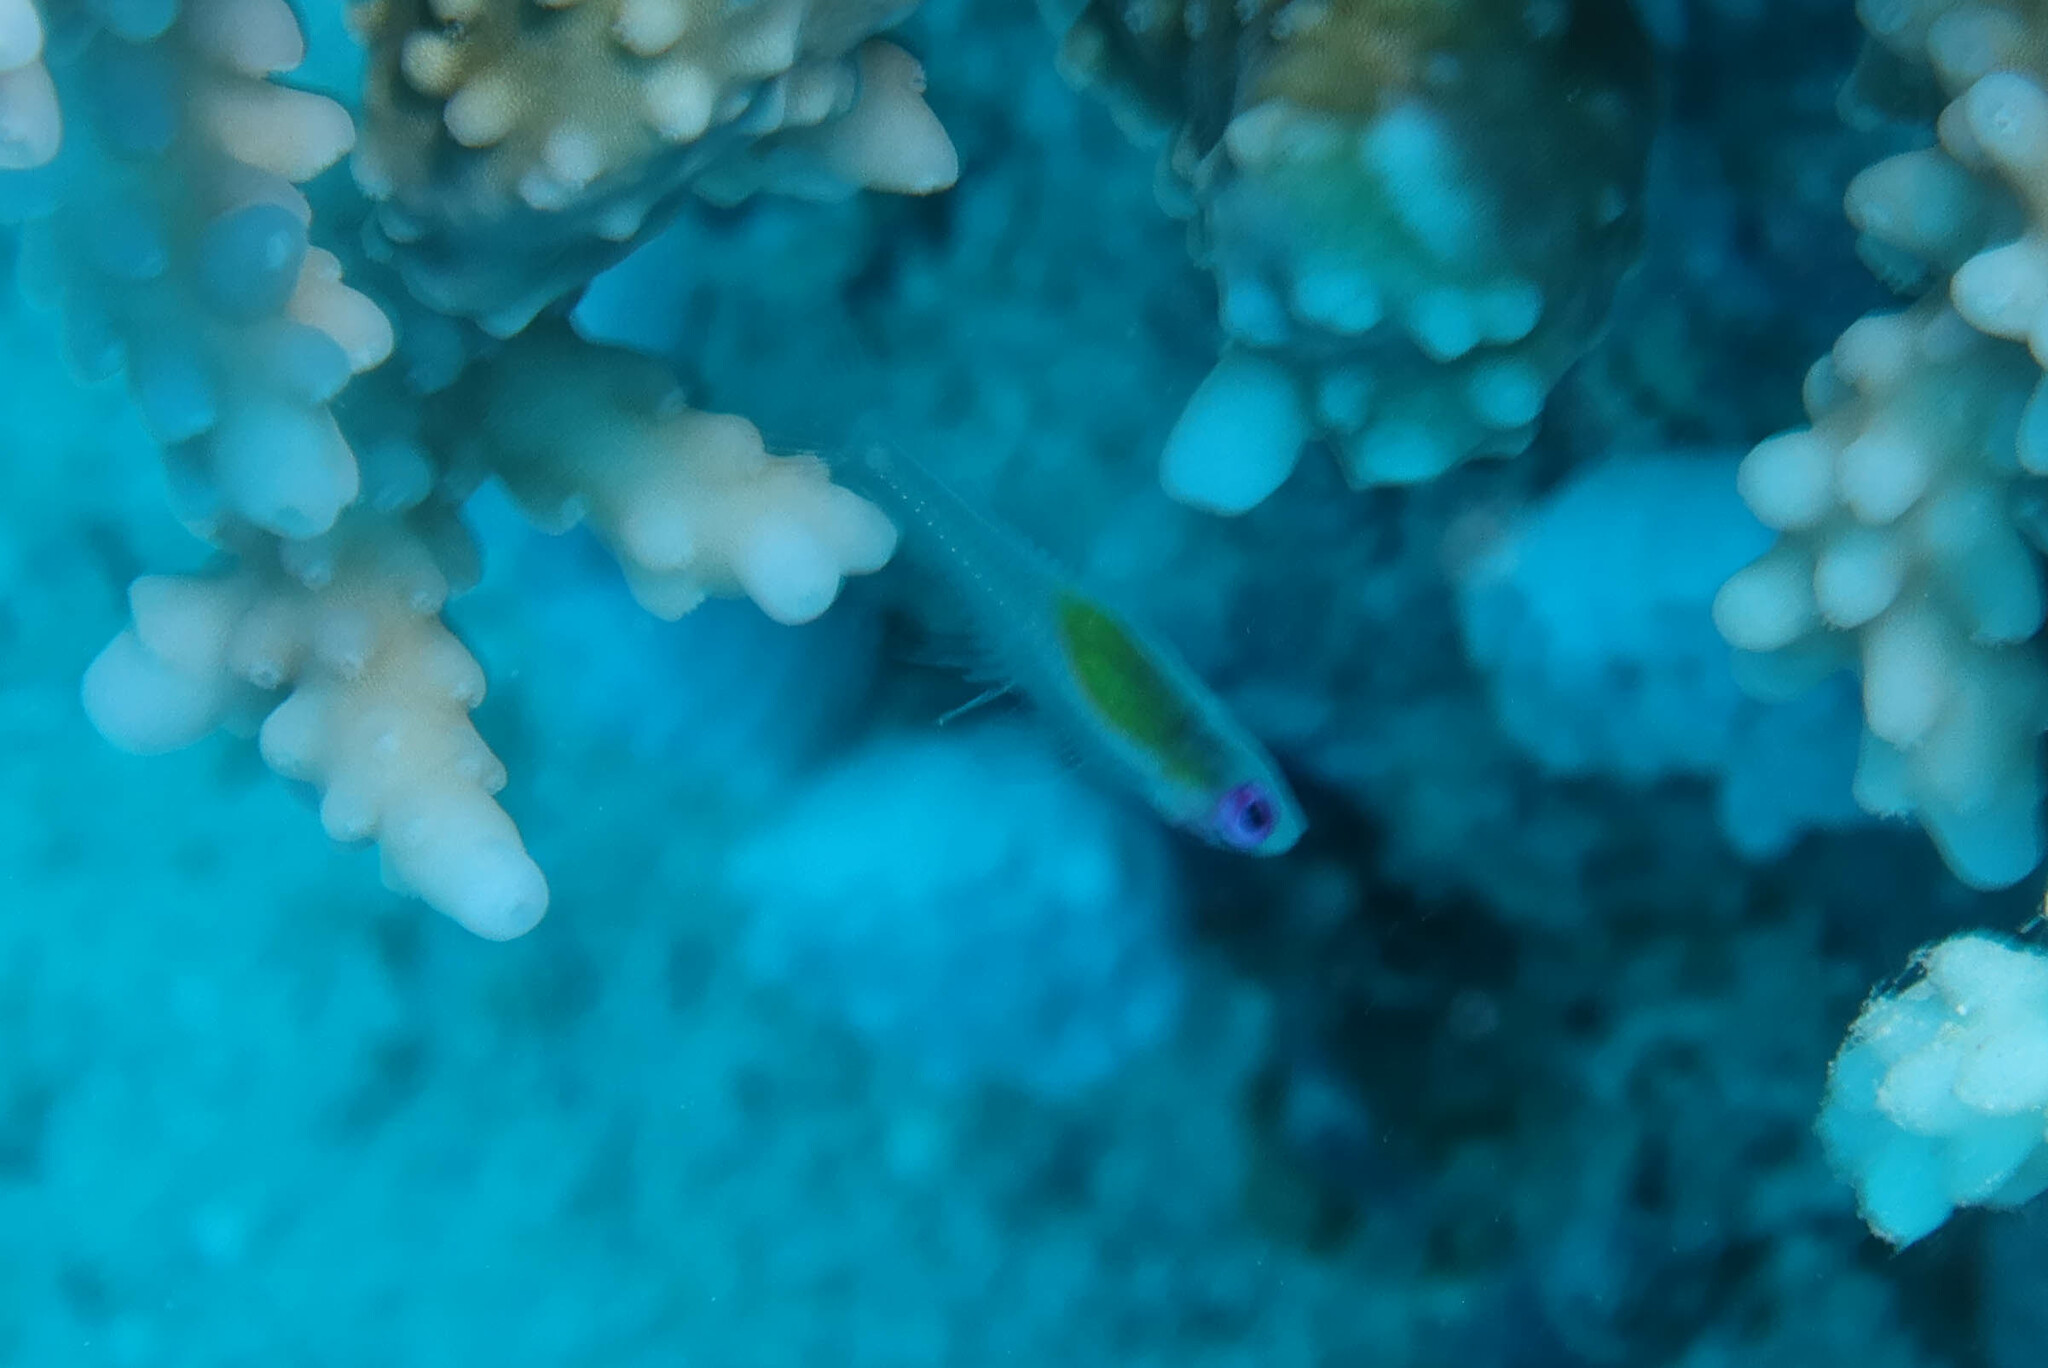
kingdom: Animalia
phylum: Chordata
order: Perciformes
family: Gobiidae
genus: Bryaninops
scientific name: Bryaninops natans
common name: Redeye goby
